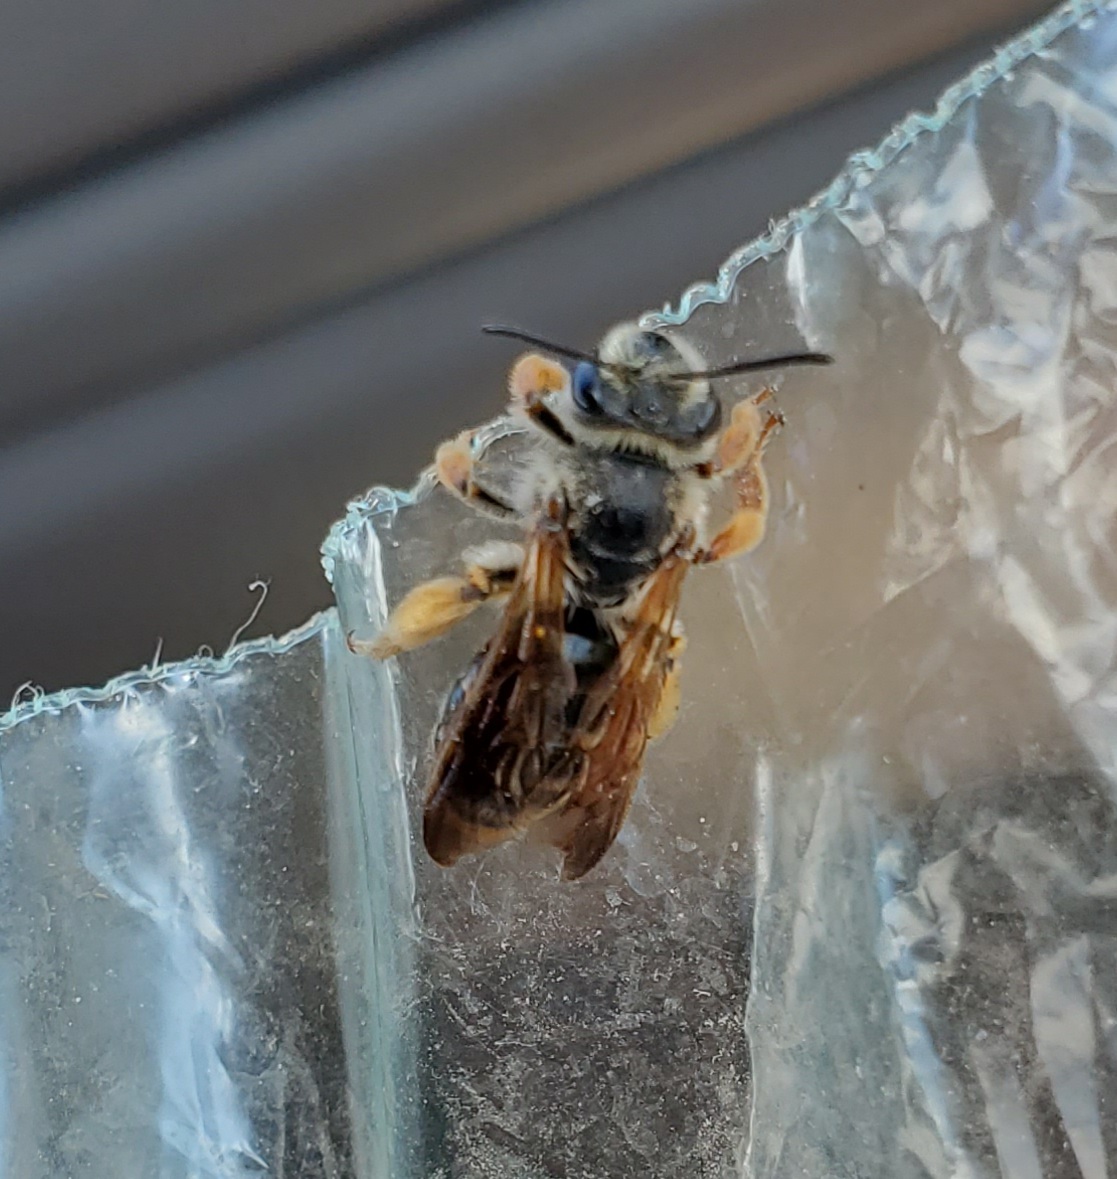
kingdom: Animalia
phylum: Arthropoda
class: Insecta
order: Hymenoptera
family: Andrenidae
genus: Andrena
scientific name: Andrena prunorum
